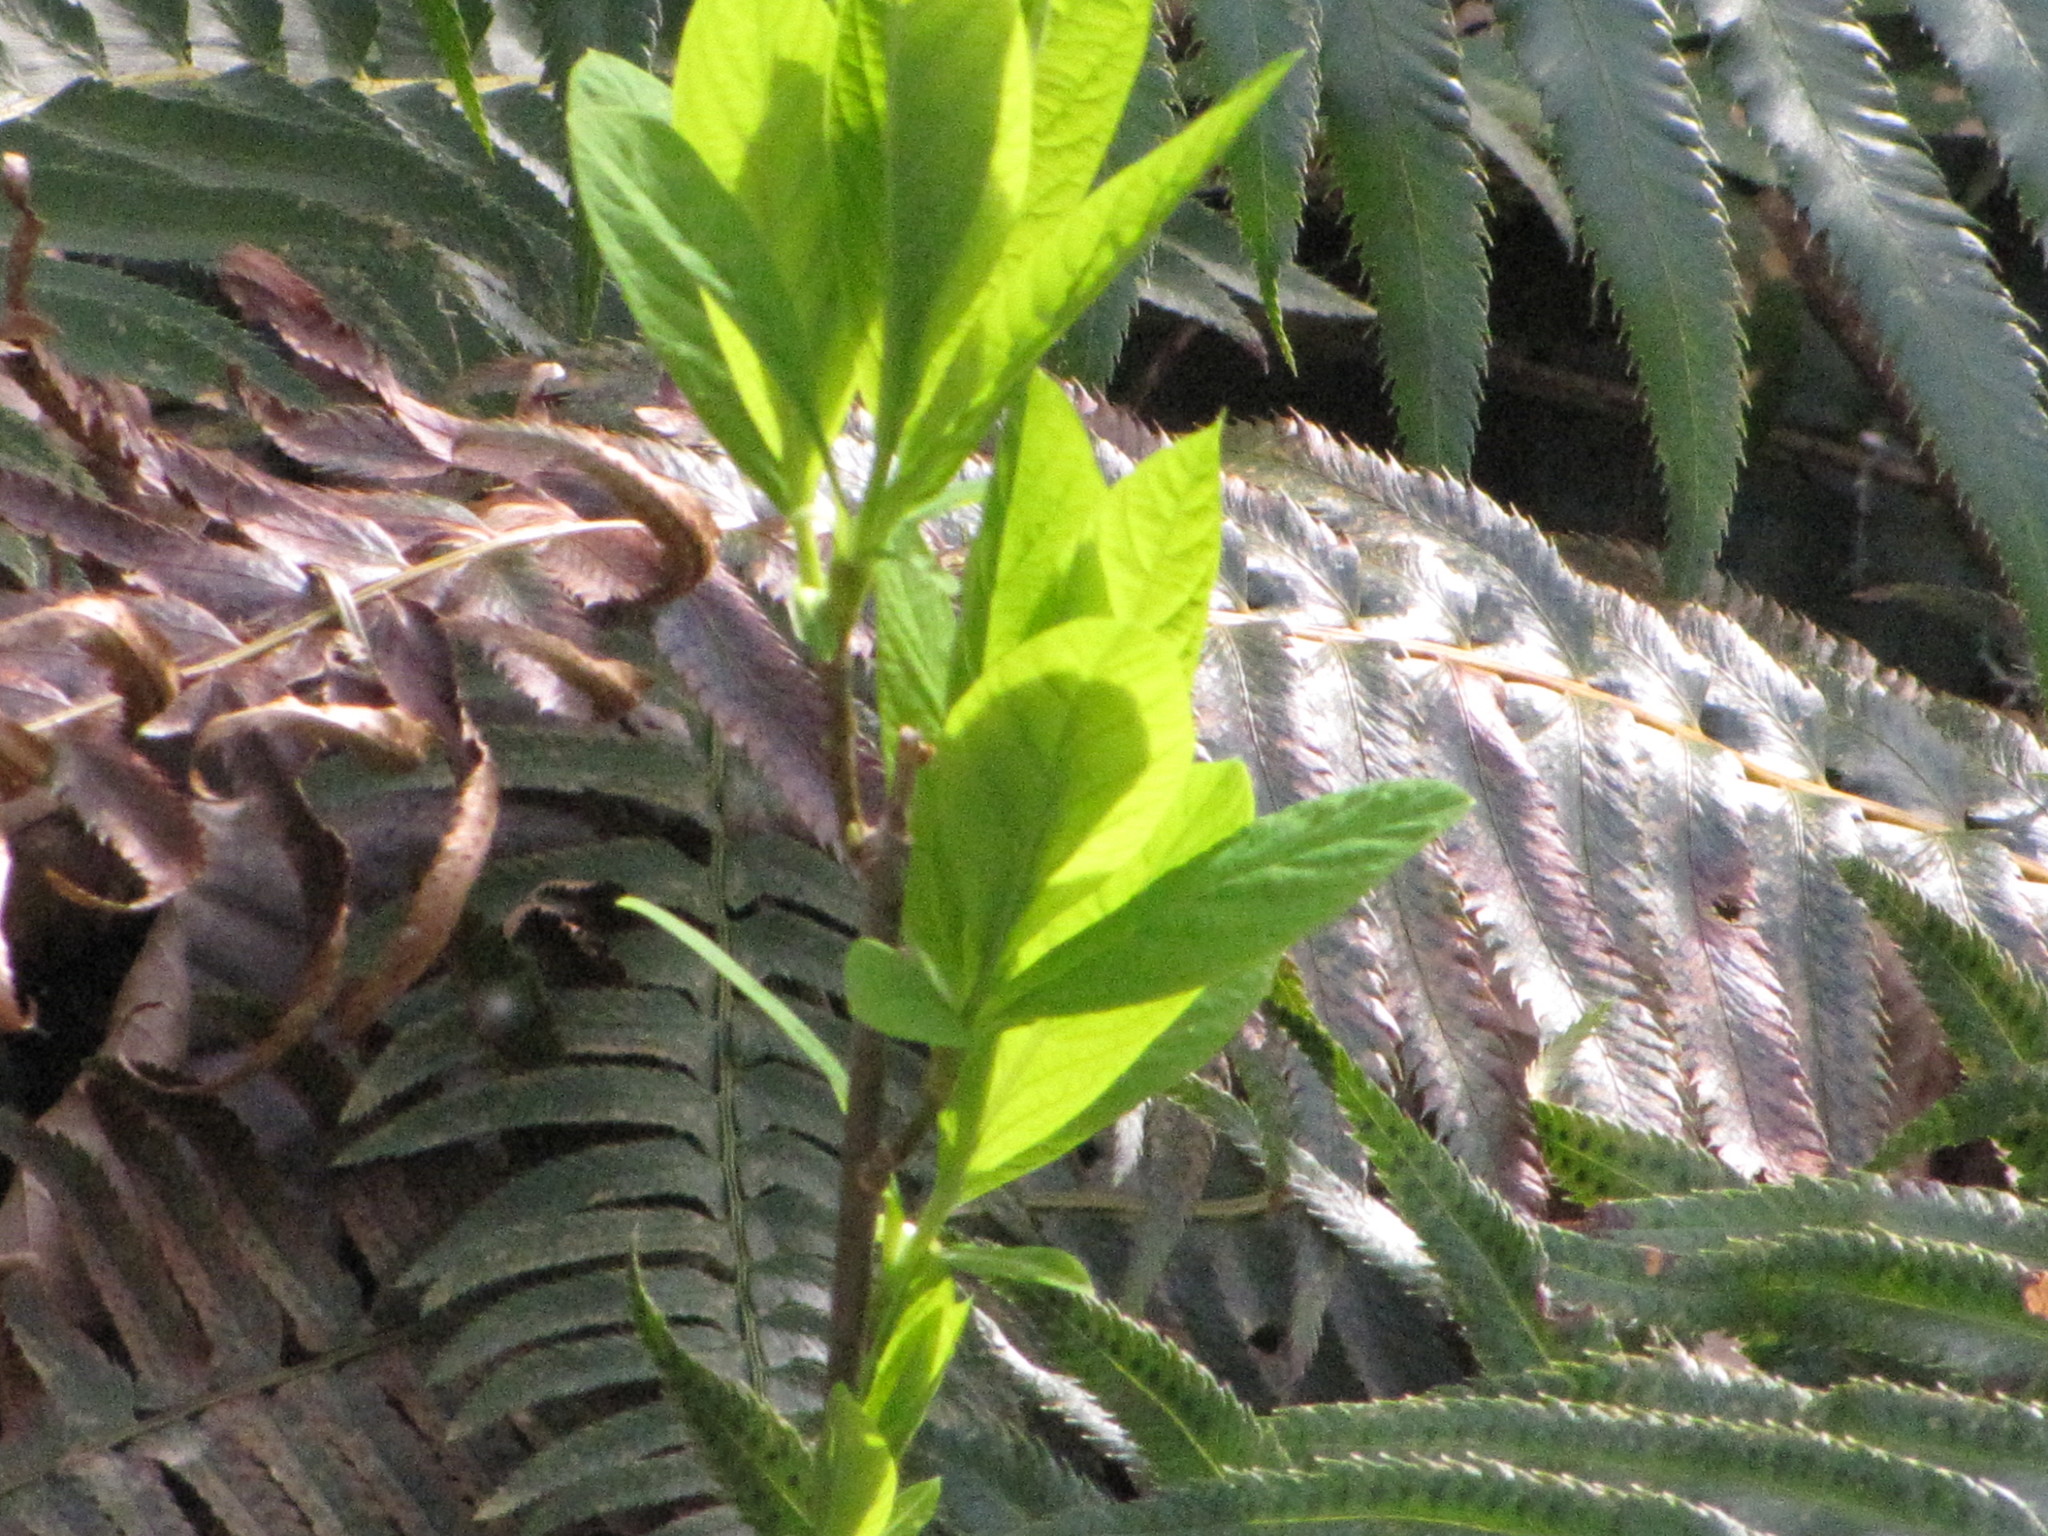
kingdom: Plantae
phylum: Tracheophyta
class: Magnoliopsida
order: Rosales
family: Rosaceae
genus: Oemleria
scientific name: Oemleria cerasiformis
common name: Osoberry
